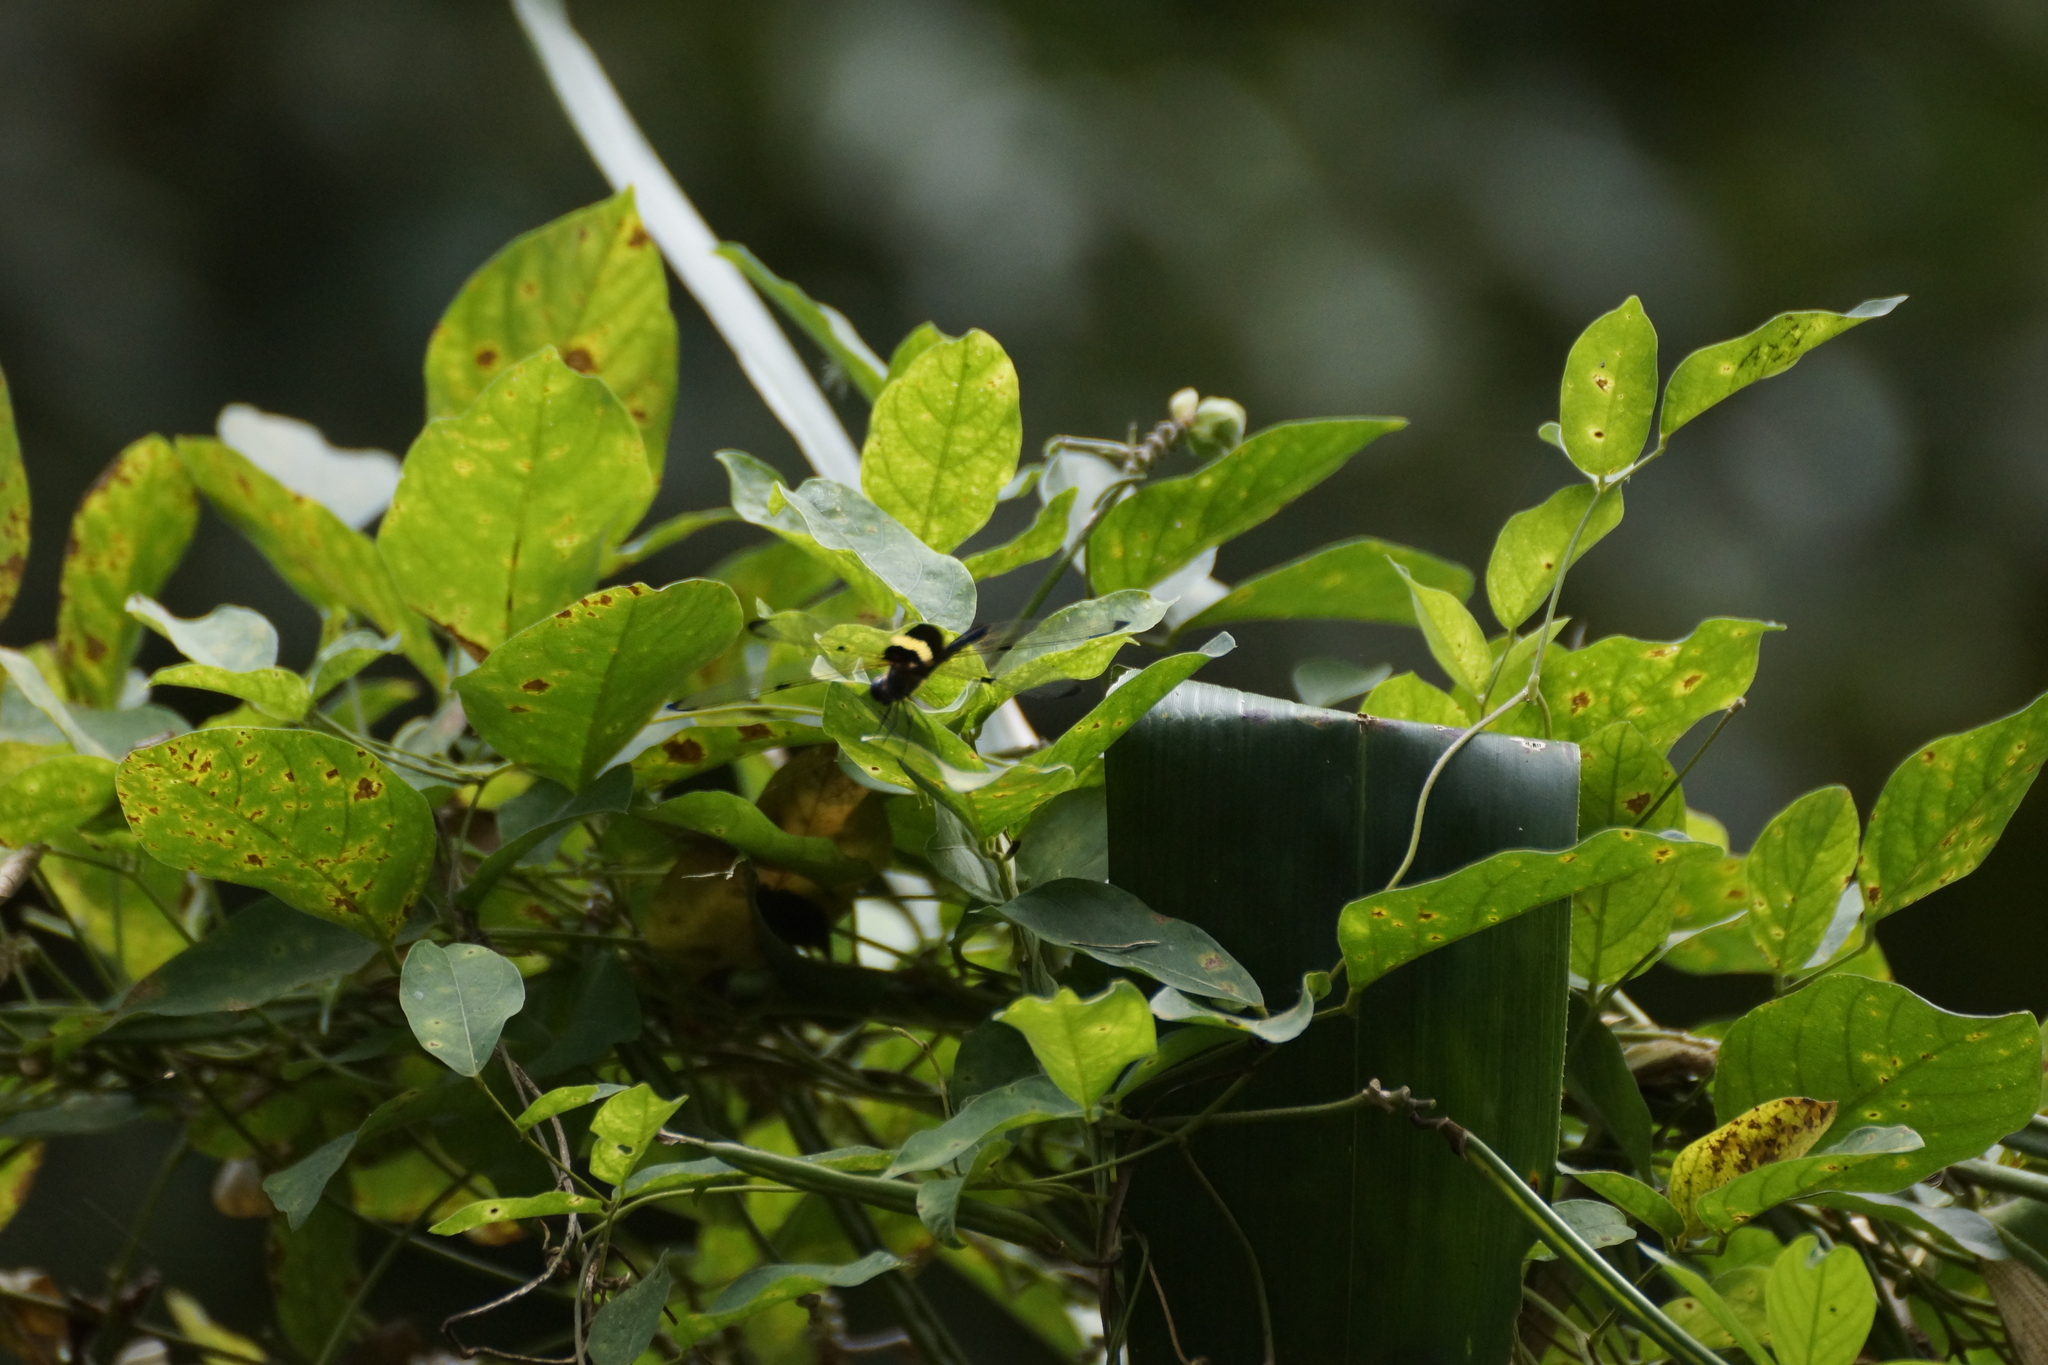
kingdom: Animalia
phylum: Arthropoda
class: Insecta
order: Odonata
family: Libellulidae
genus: Rhyothemis
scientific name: Rhyothemis phyllis
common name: Yellow-barred flutterer
